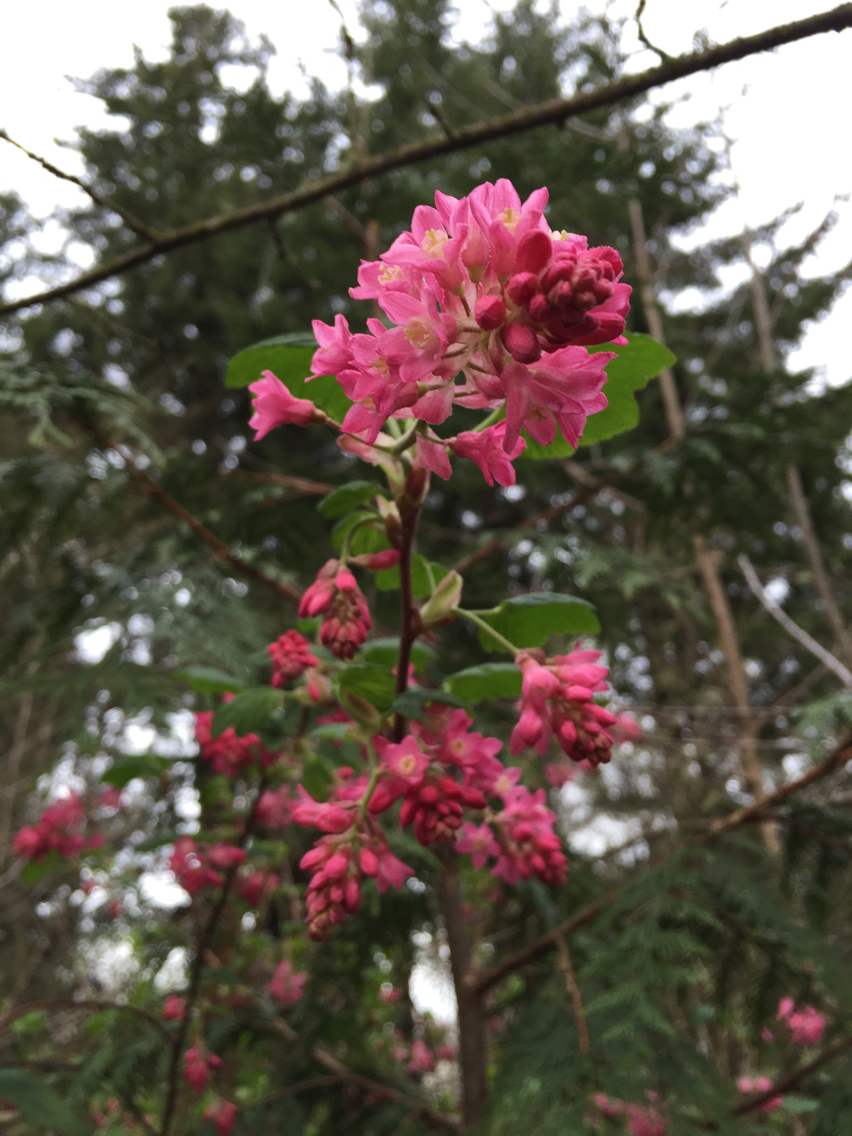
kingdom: Plantae
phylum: Tracheophyta
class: Magnoliopsida
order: Saxifragales
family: Grossulariaceae
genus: Ribes
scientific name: Ribes sanguineum
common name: Flowering currant
